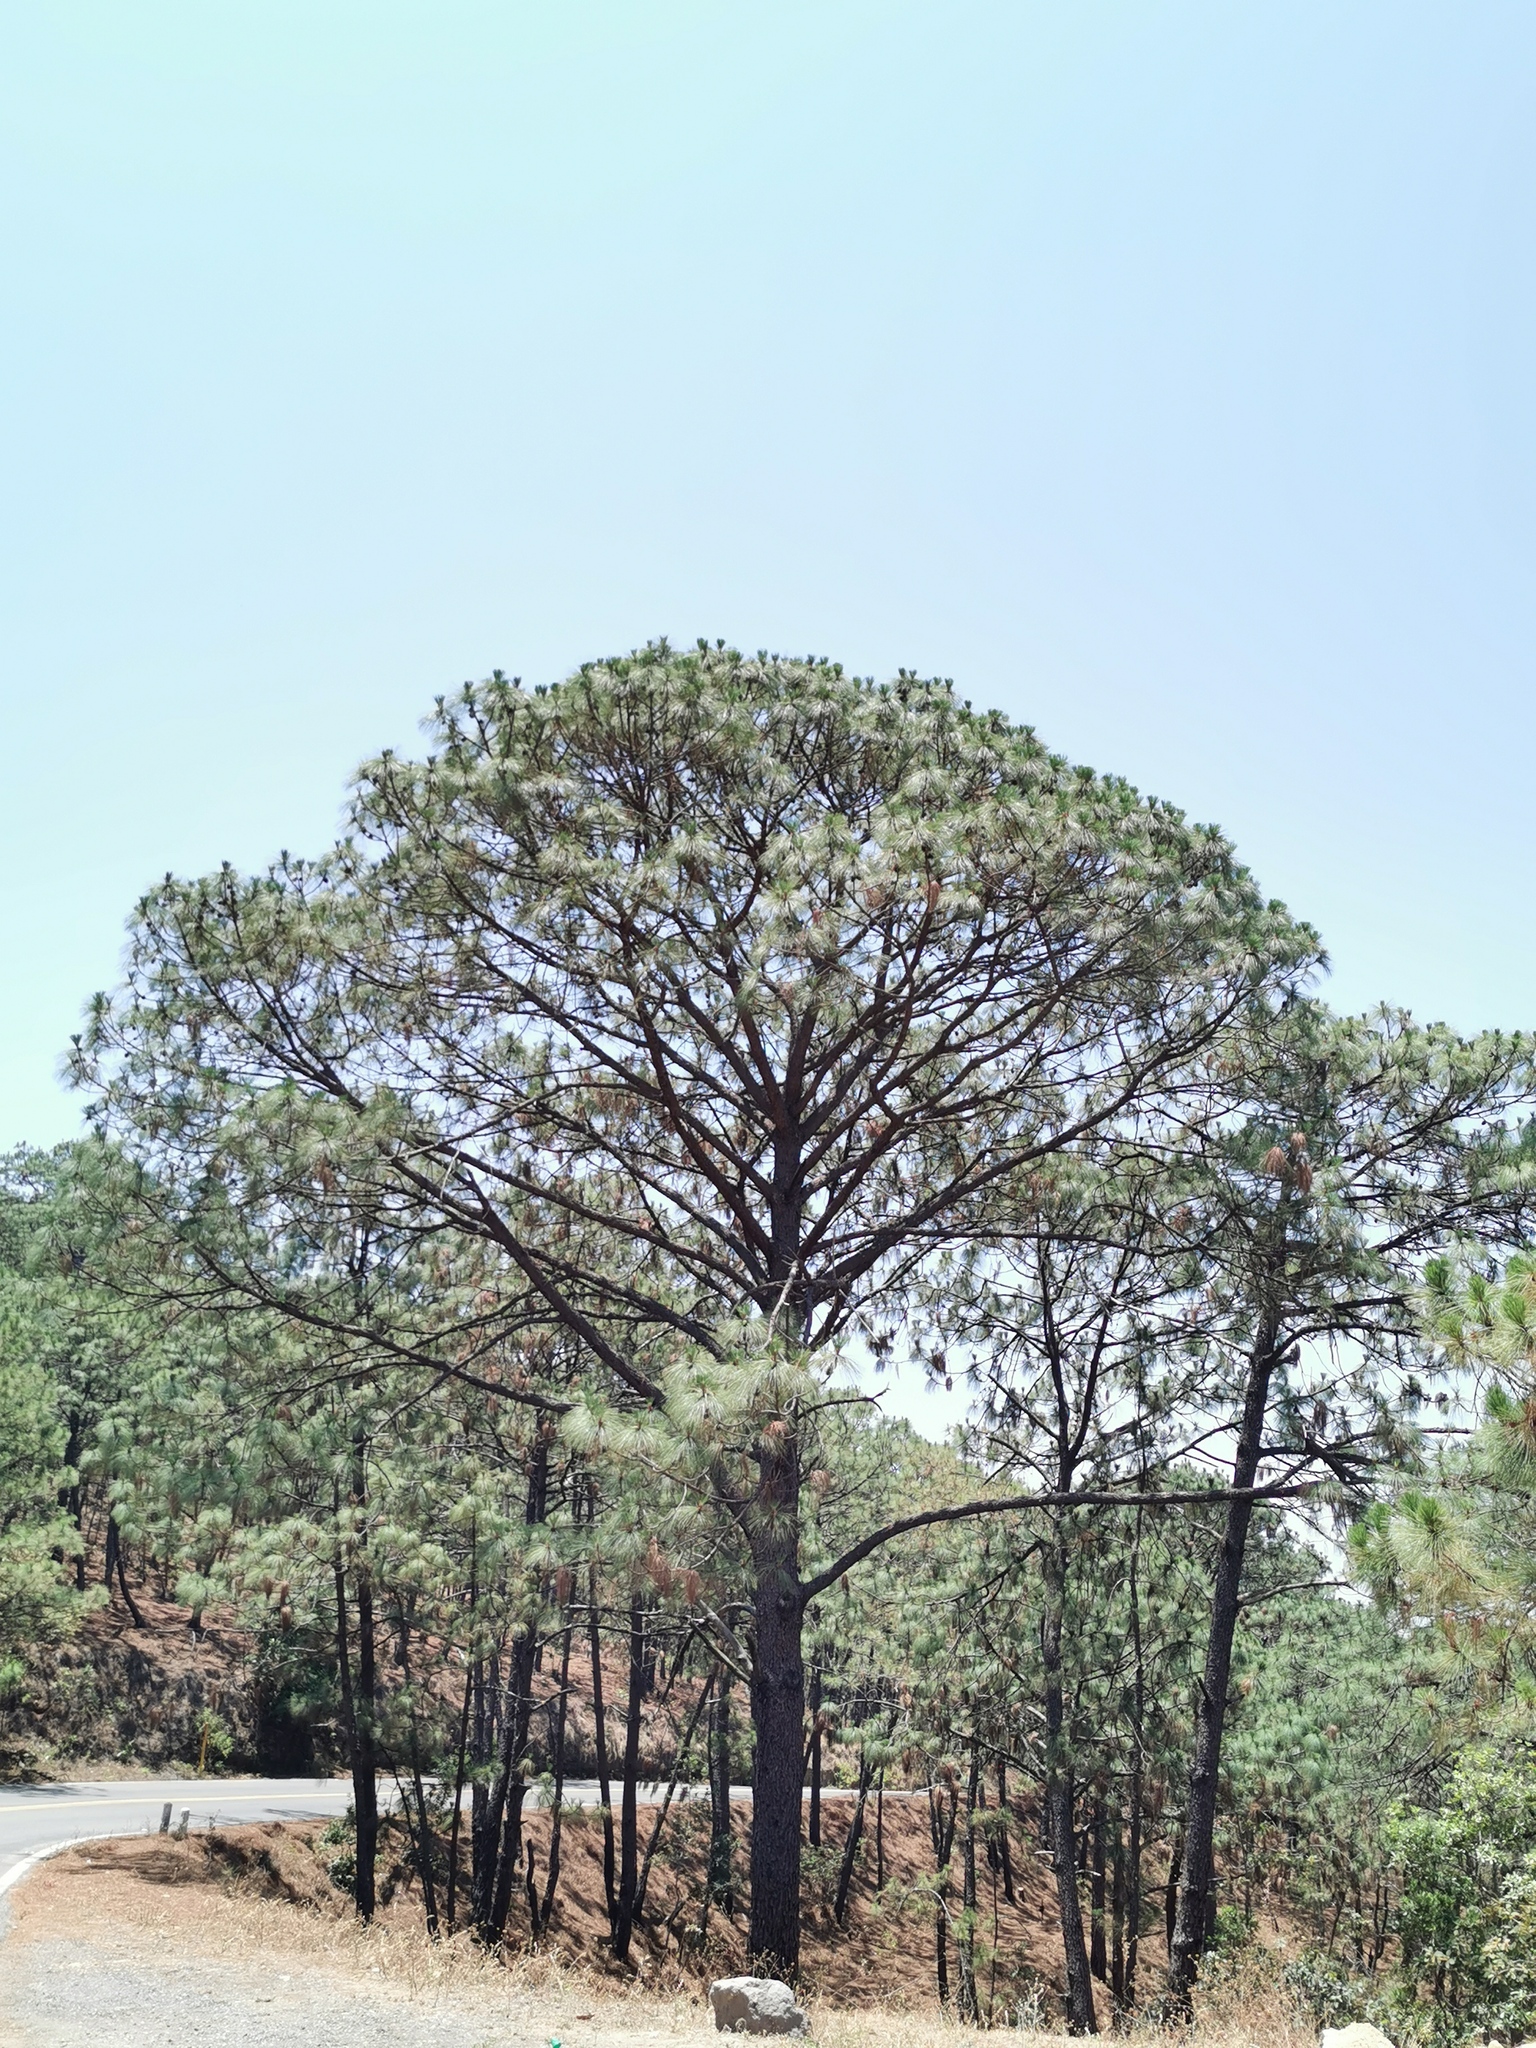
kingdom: Plantae
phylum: Tracheophyta
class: Pinopsida
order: Pinales
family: Pinaceae
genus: Pinus
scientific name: Pinus pseudostrobus
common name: False weymouth pine
